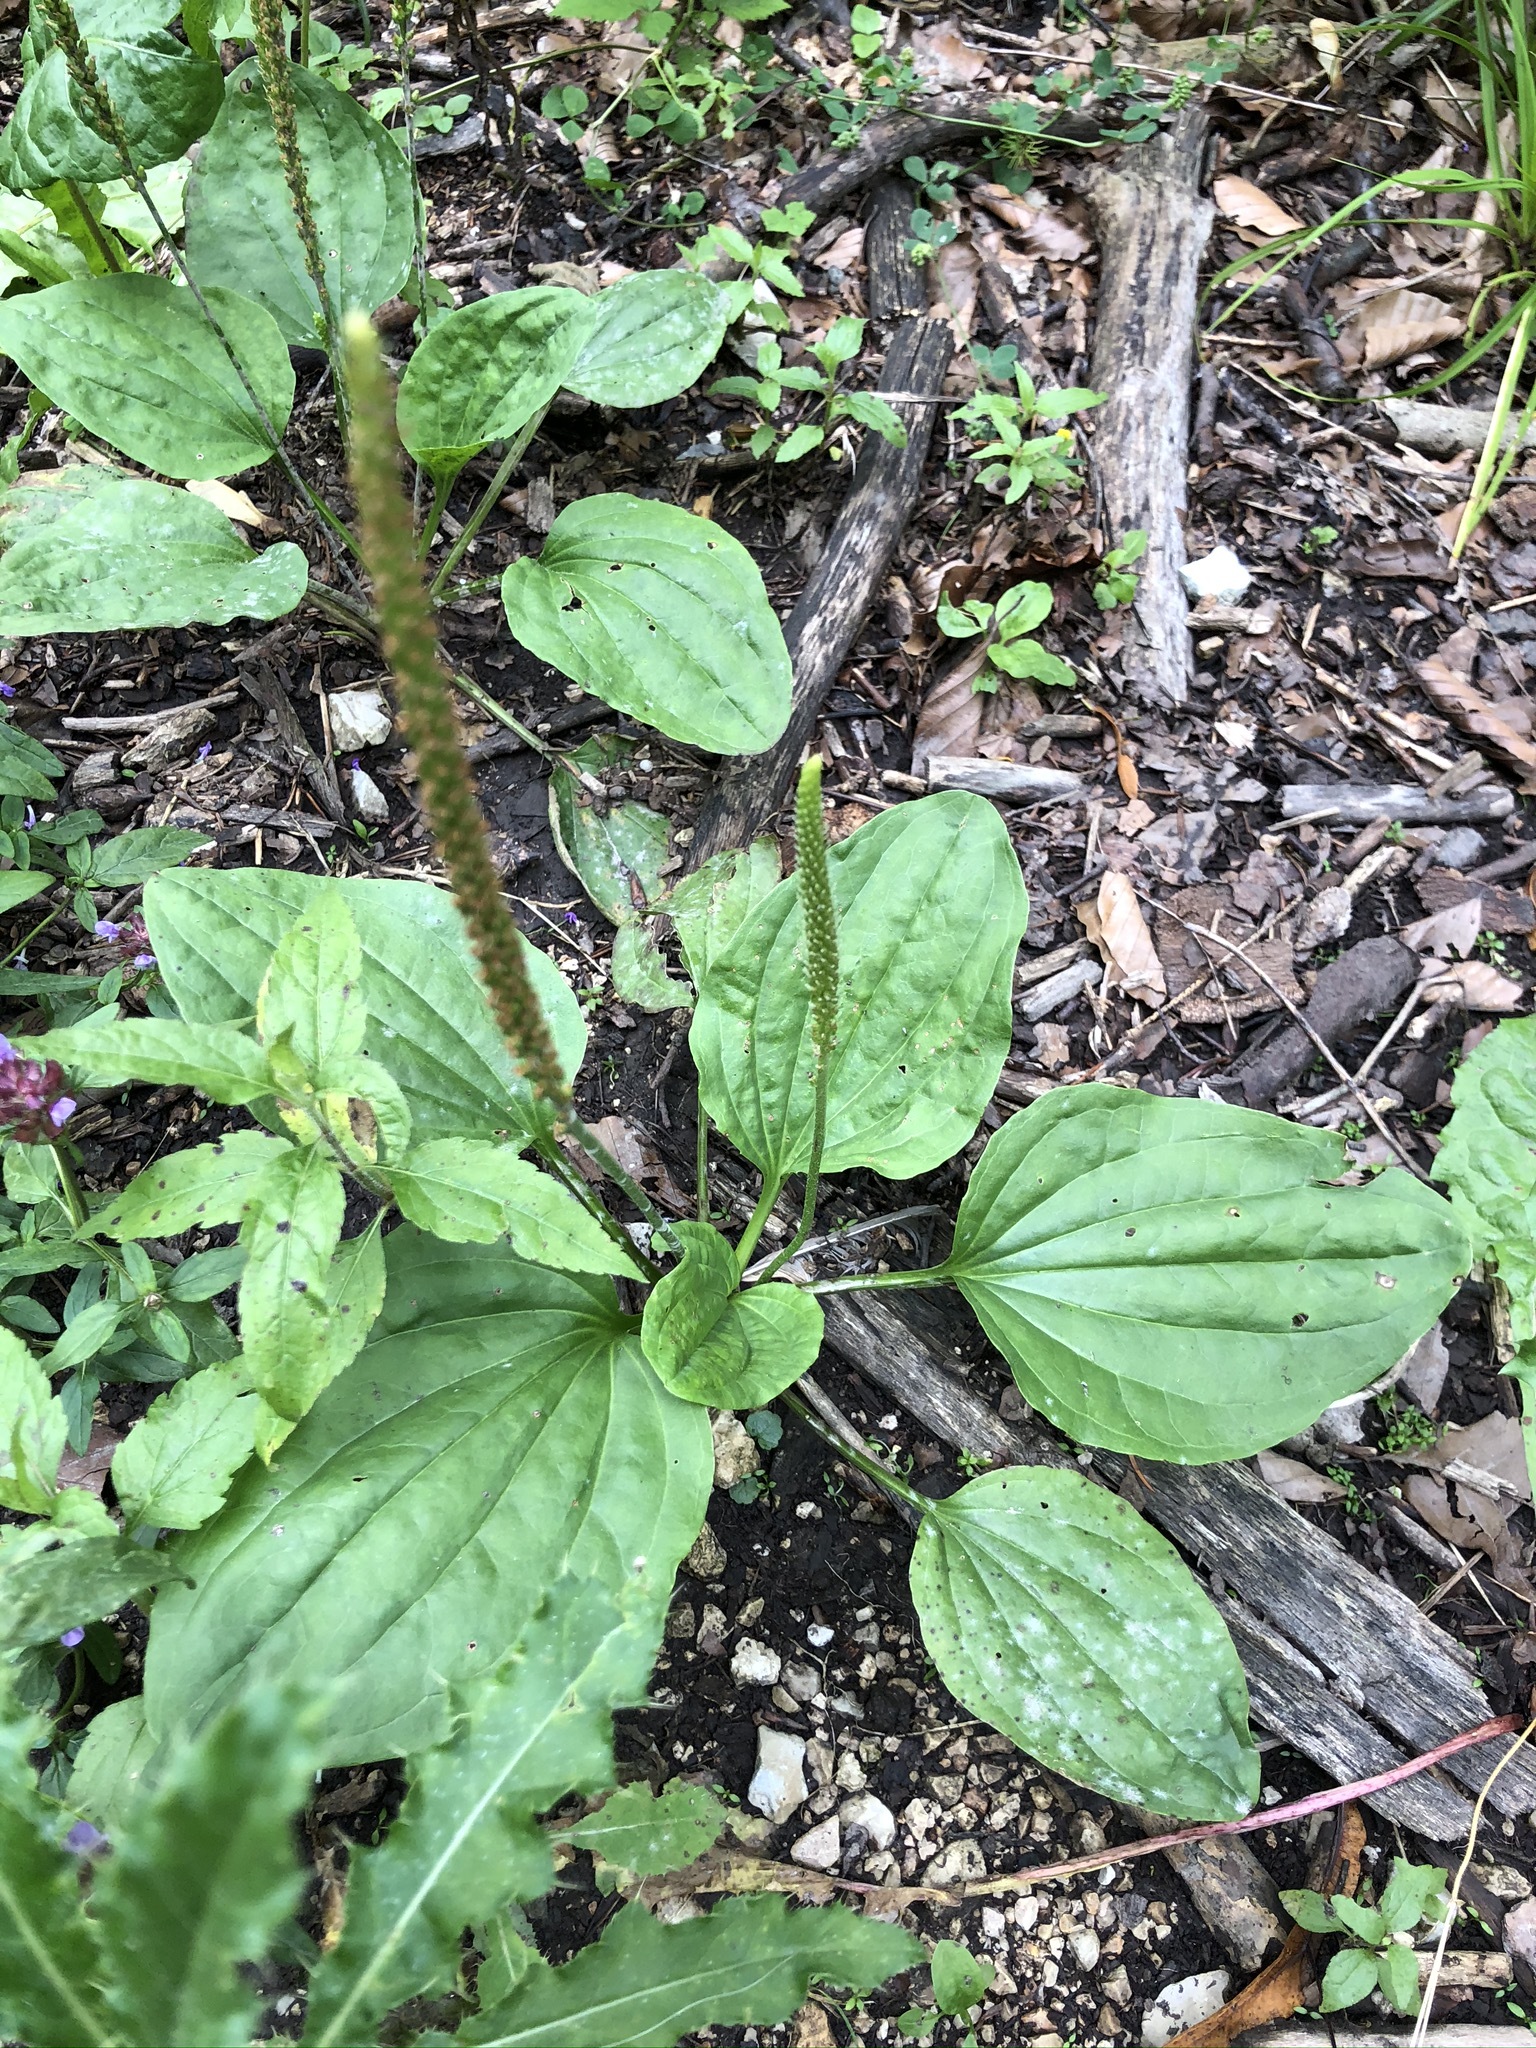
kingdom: Plantae
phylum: Tracheophyta
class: Magnoliopsida
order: Lamiales
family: Plantaginaceae
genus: Plantago
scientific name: Plantago major
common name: Common plantain
